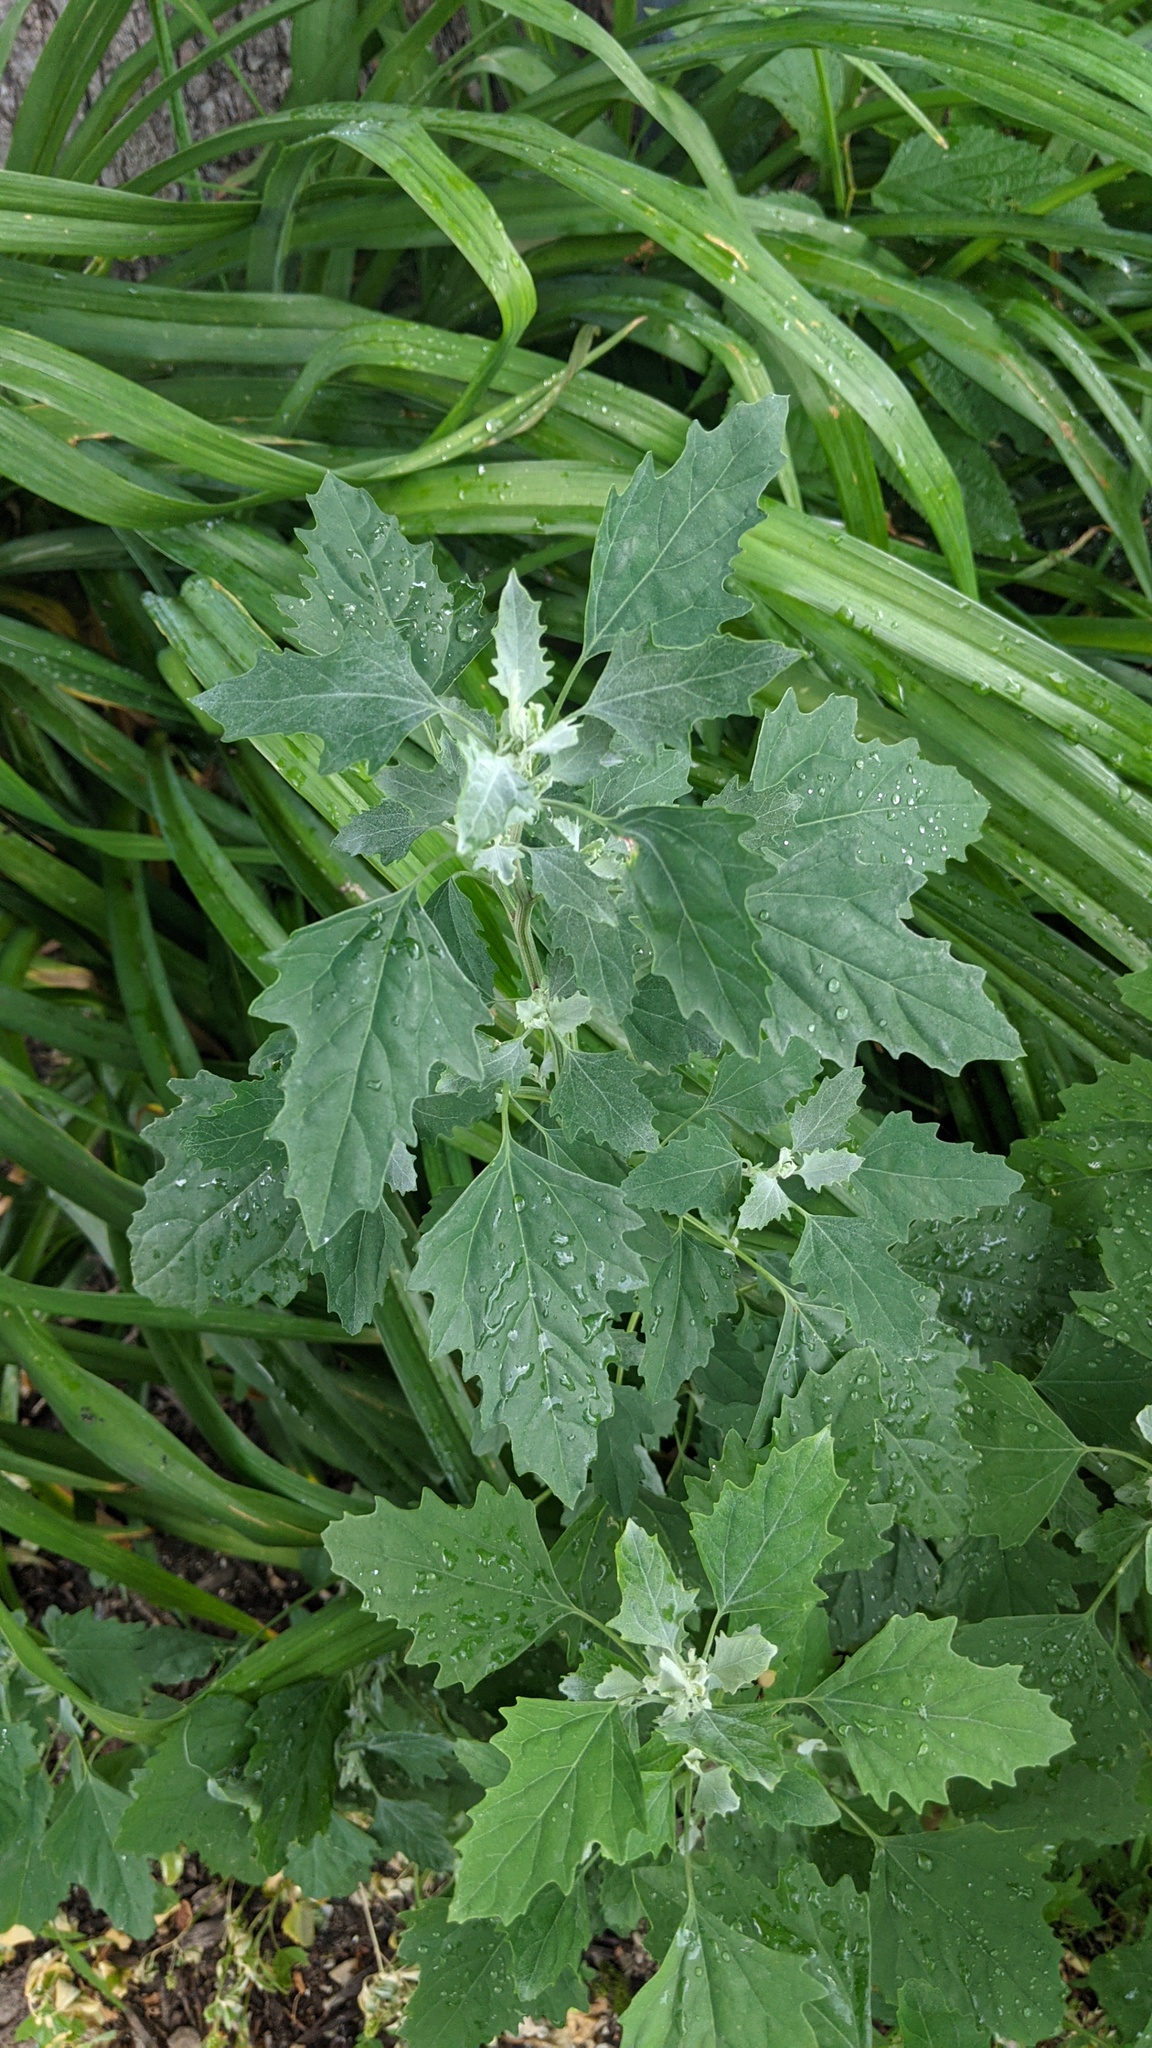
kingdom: Plantae
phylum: Tracheophyta
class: Magnoliopsida
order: Caryophyllales
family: Amaranthaceae
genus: Chenopodium
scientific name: Chenopodium album
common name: Fat-hen
